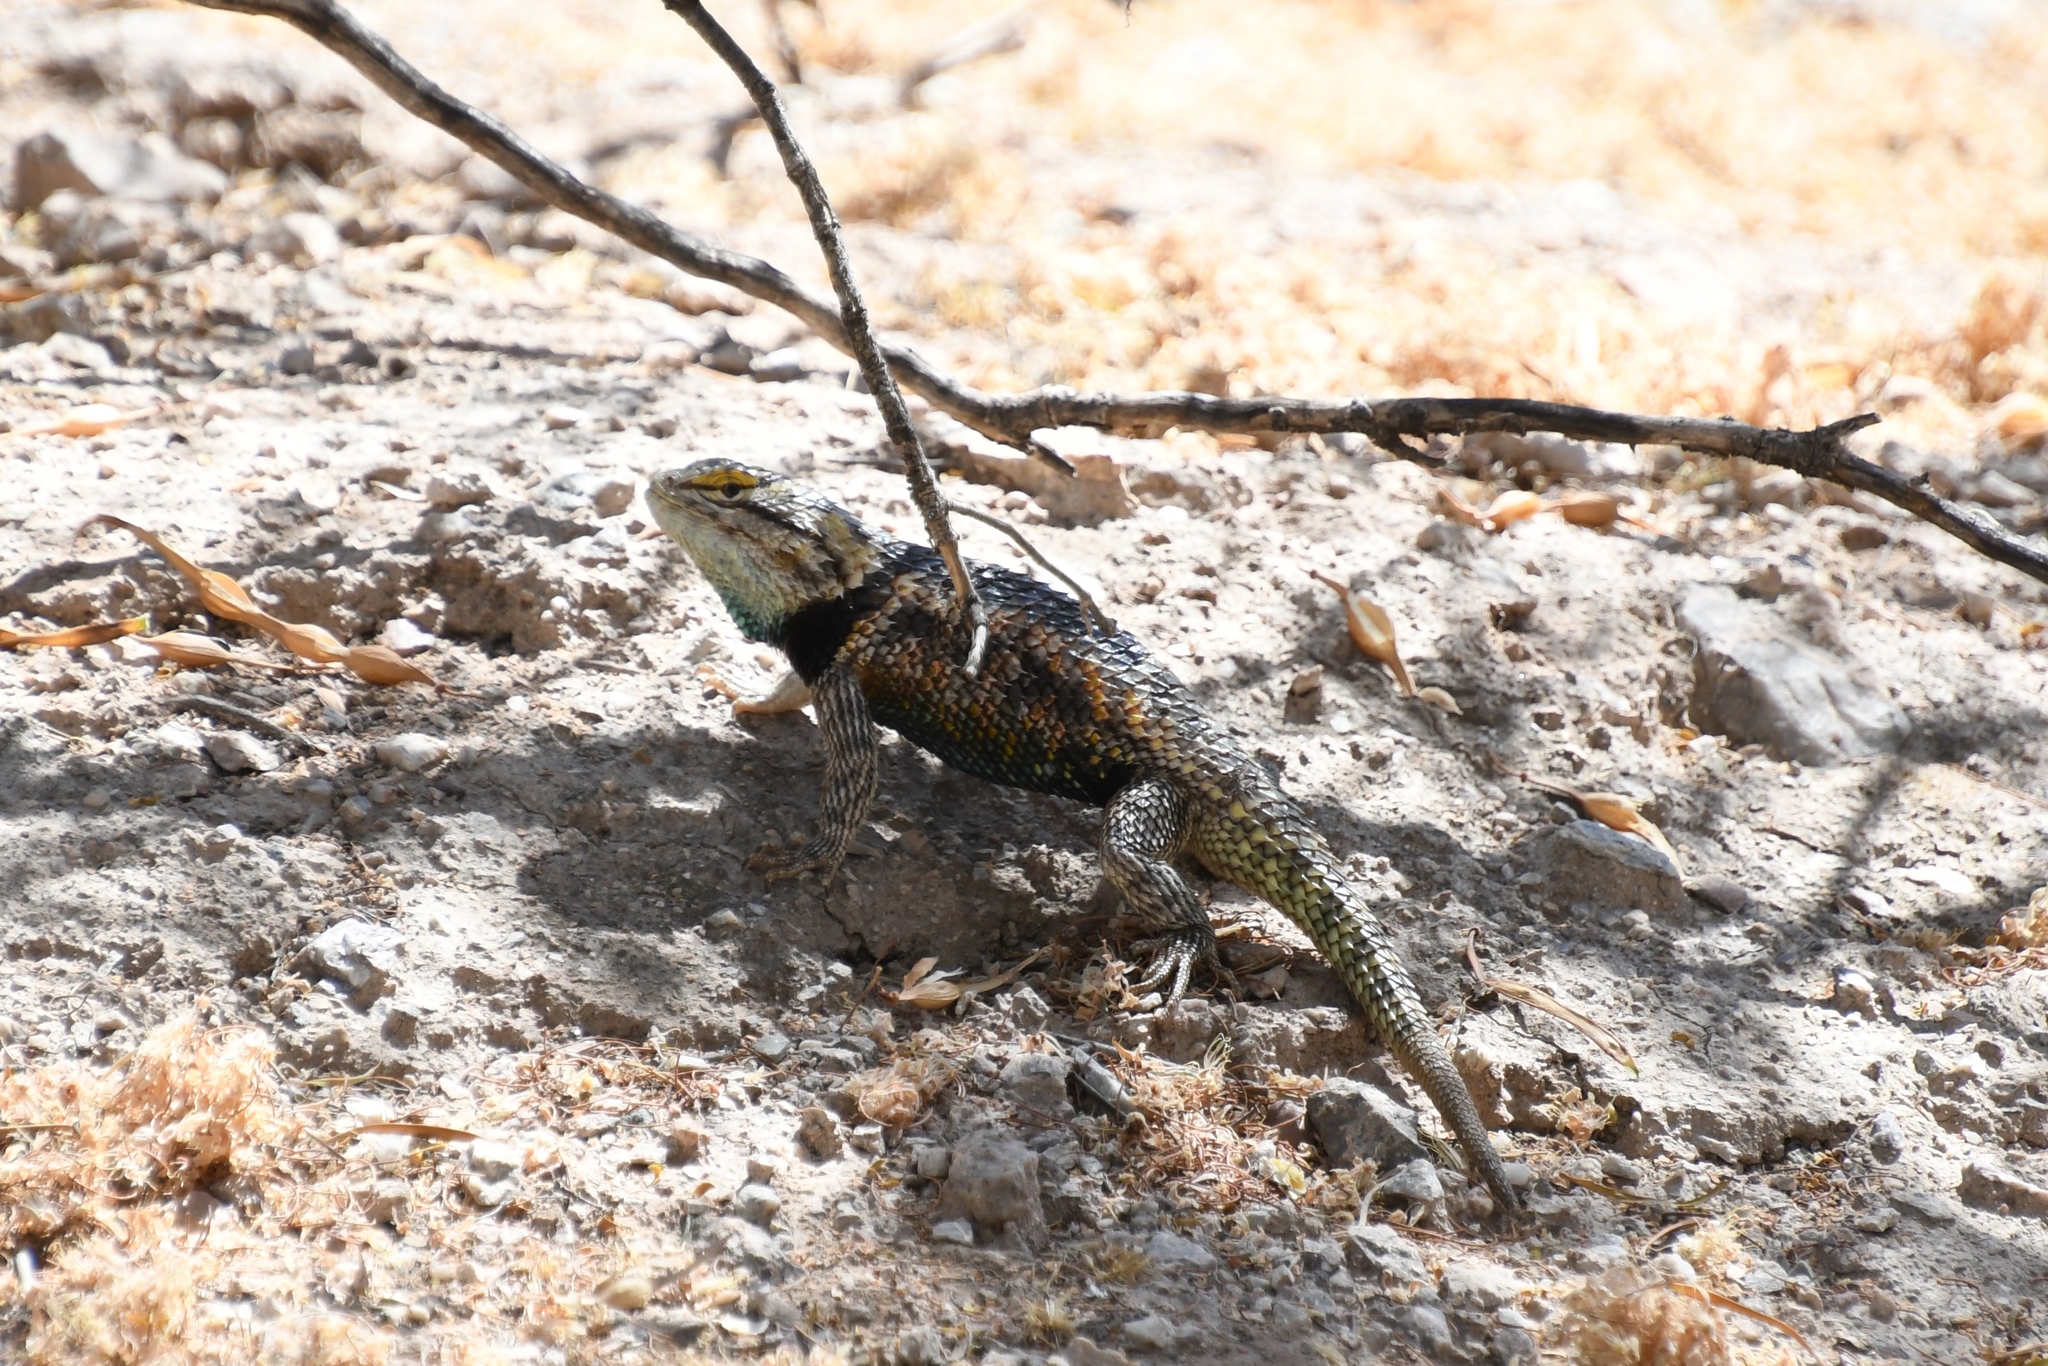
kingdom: Animalia
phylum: Chordata
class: Squamata
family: Phrynosomatidae
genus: Sceloporus
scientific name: Sceloporus magister
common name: Desert spiny lizard
